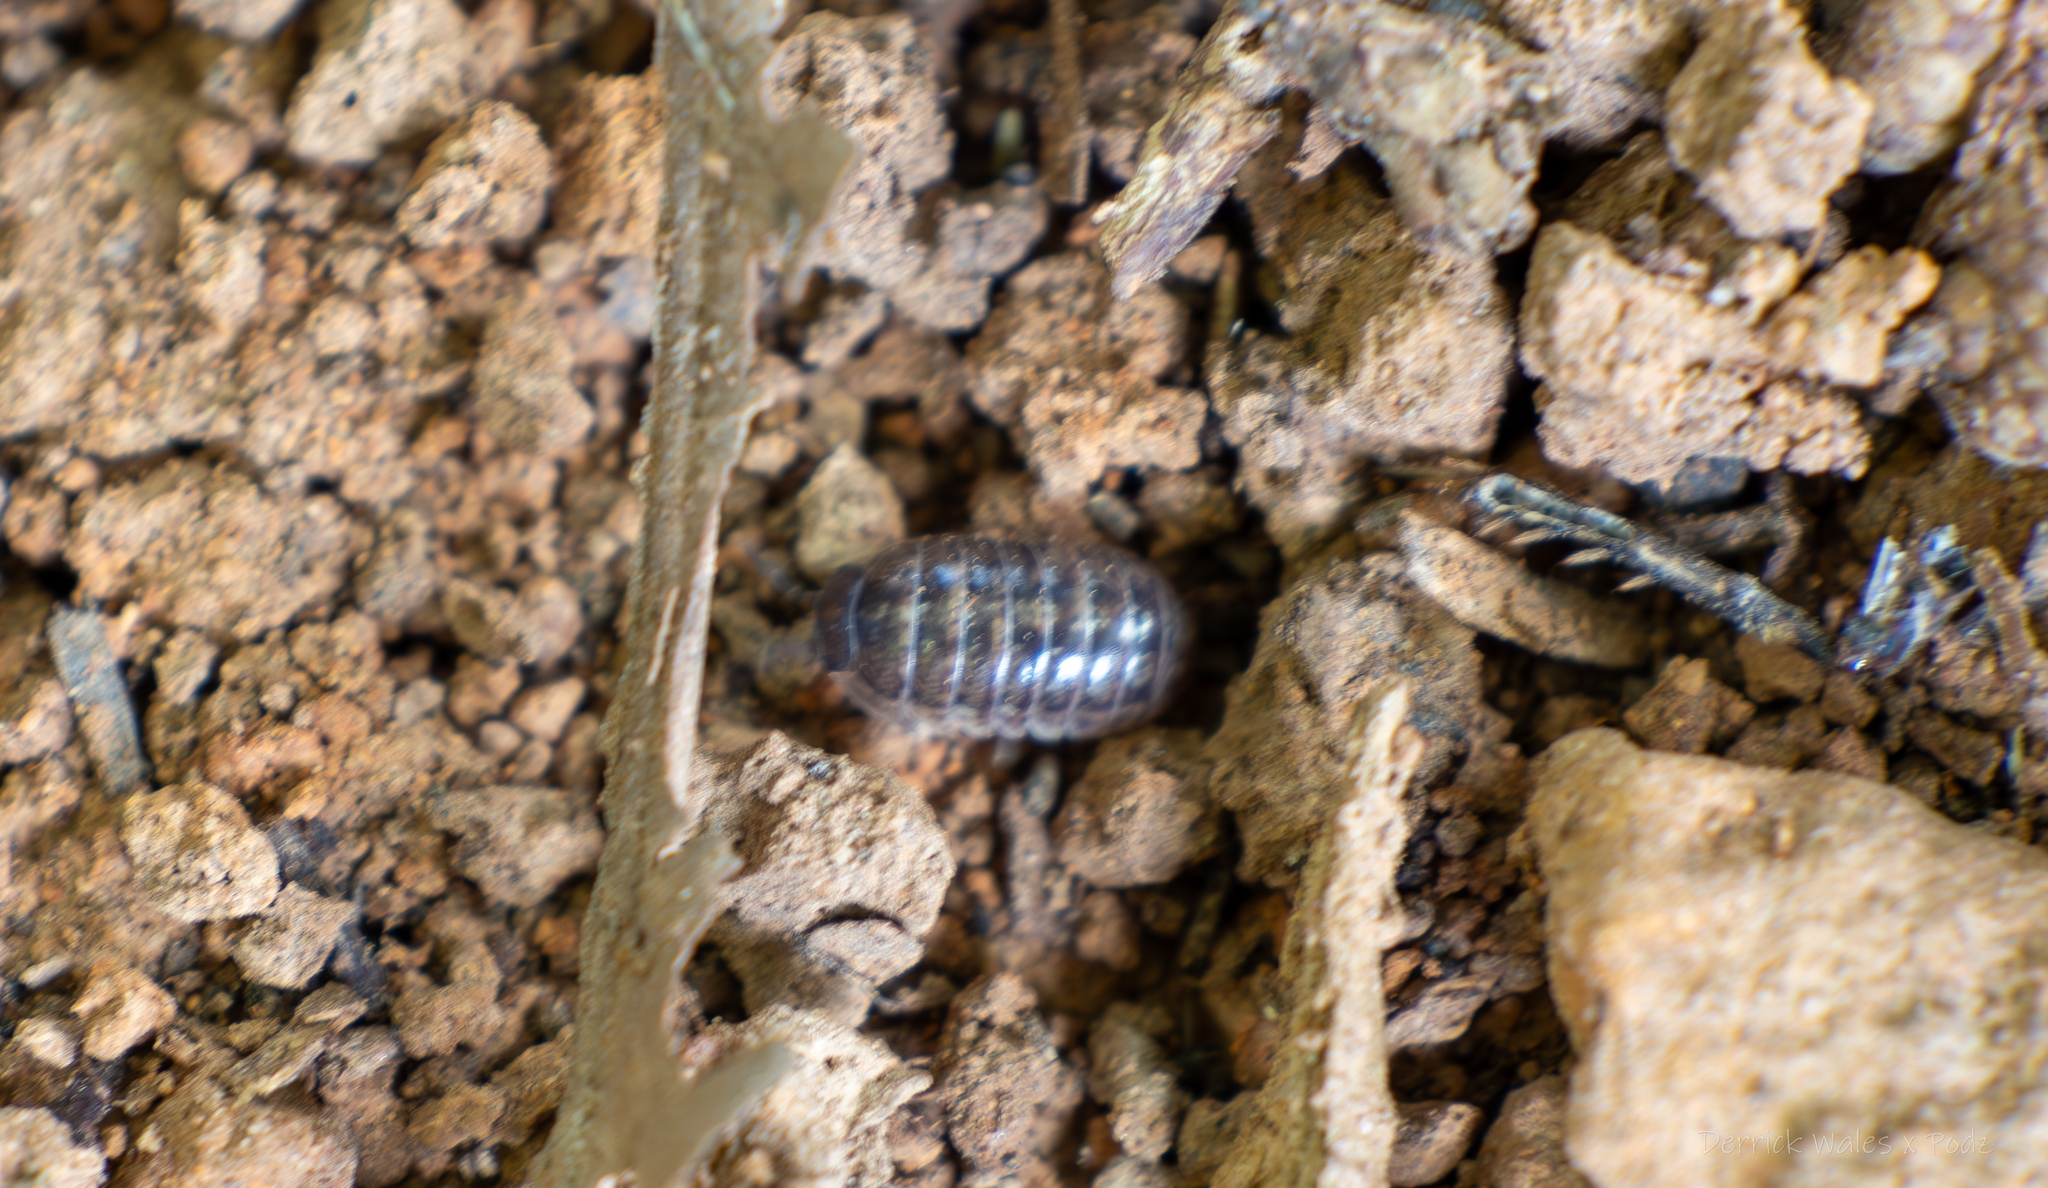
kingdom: Animalia
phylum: Arthropoda
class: Malacostraca
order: Isopoda
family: Armadillidiidae
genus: Armadillidium
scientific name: Armadillidium vulgare
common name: Common pill woodlouse
